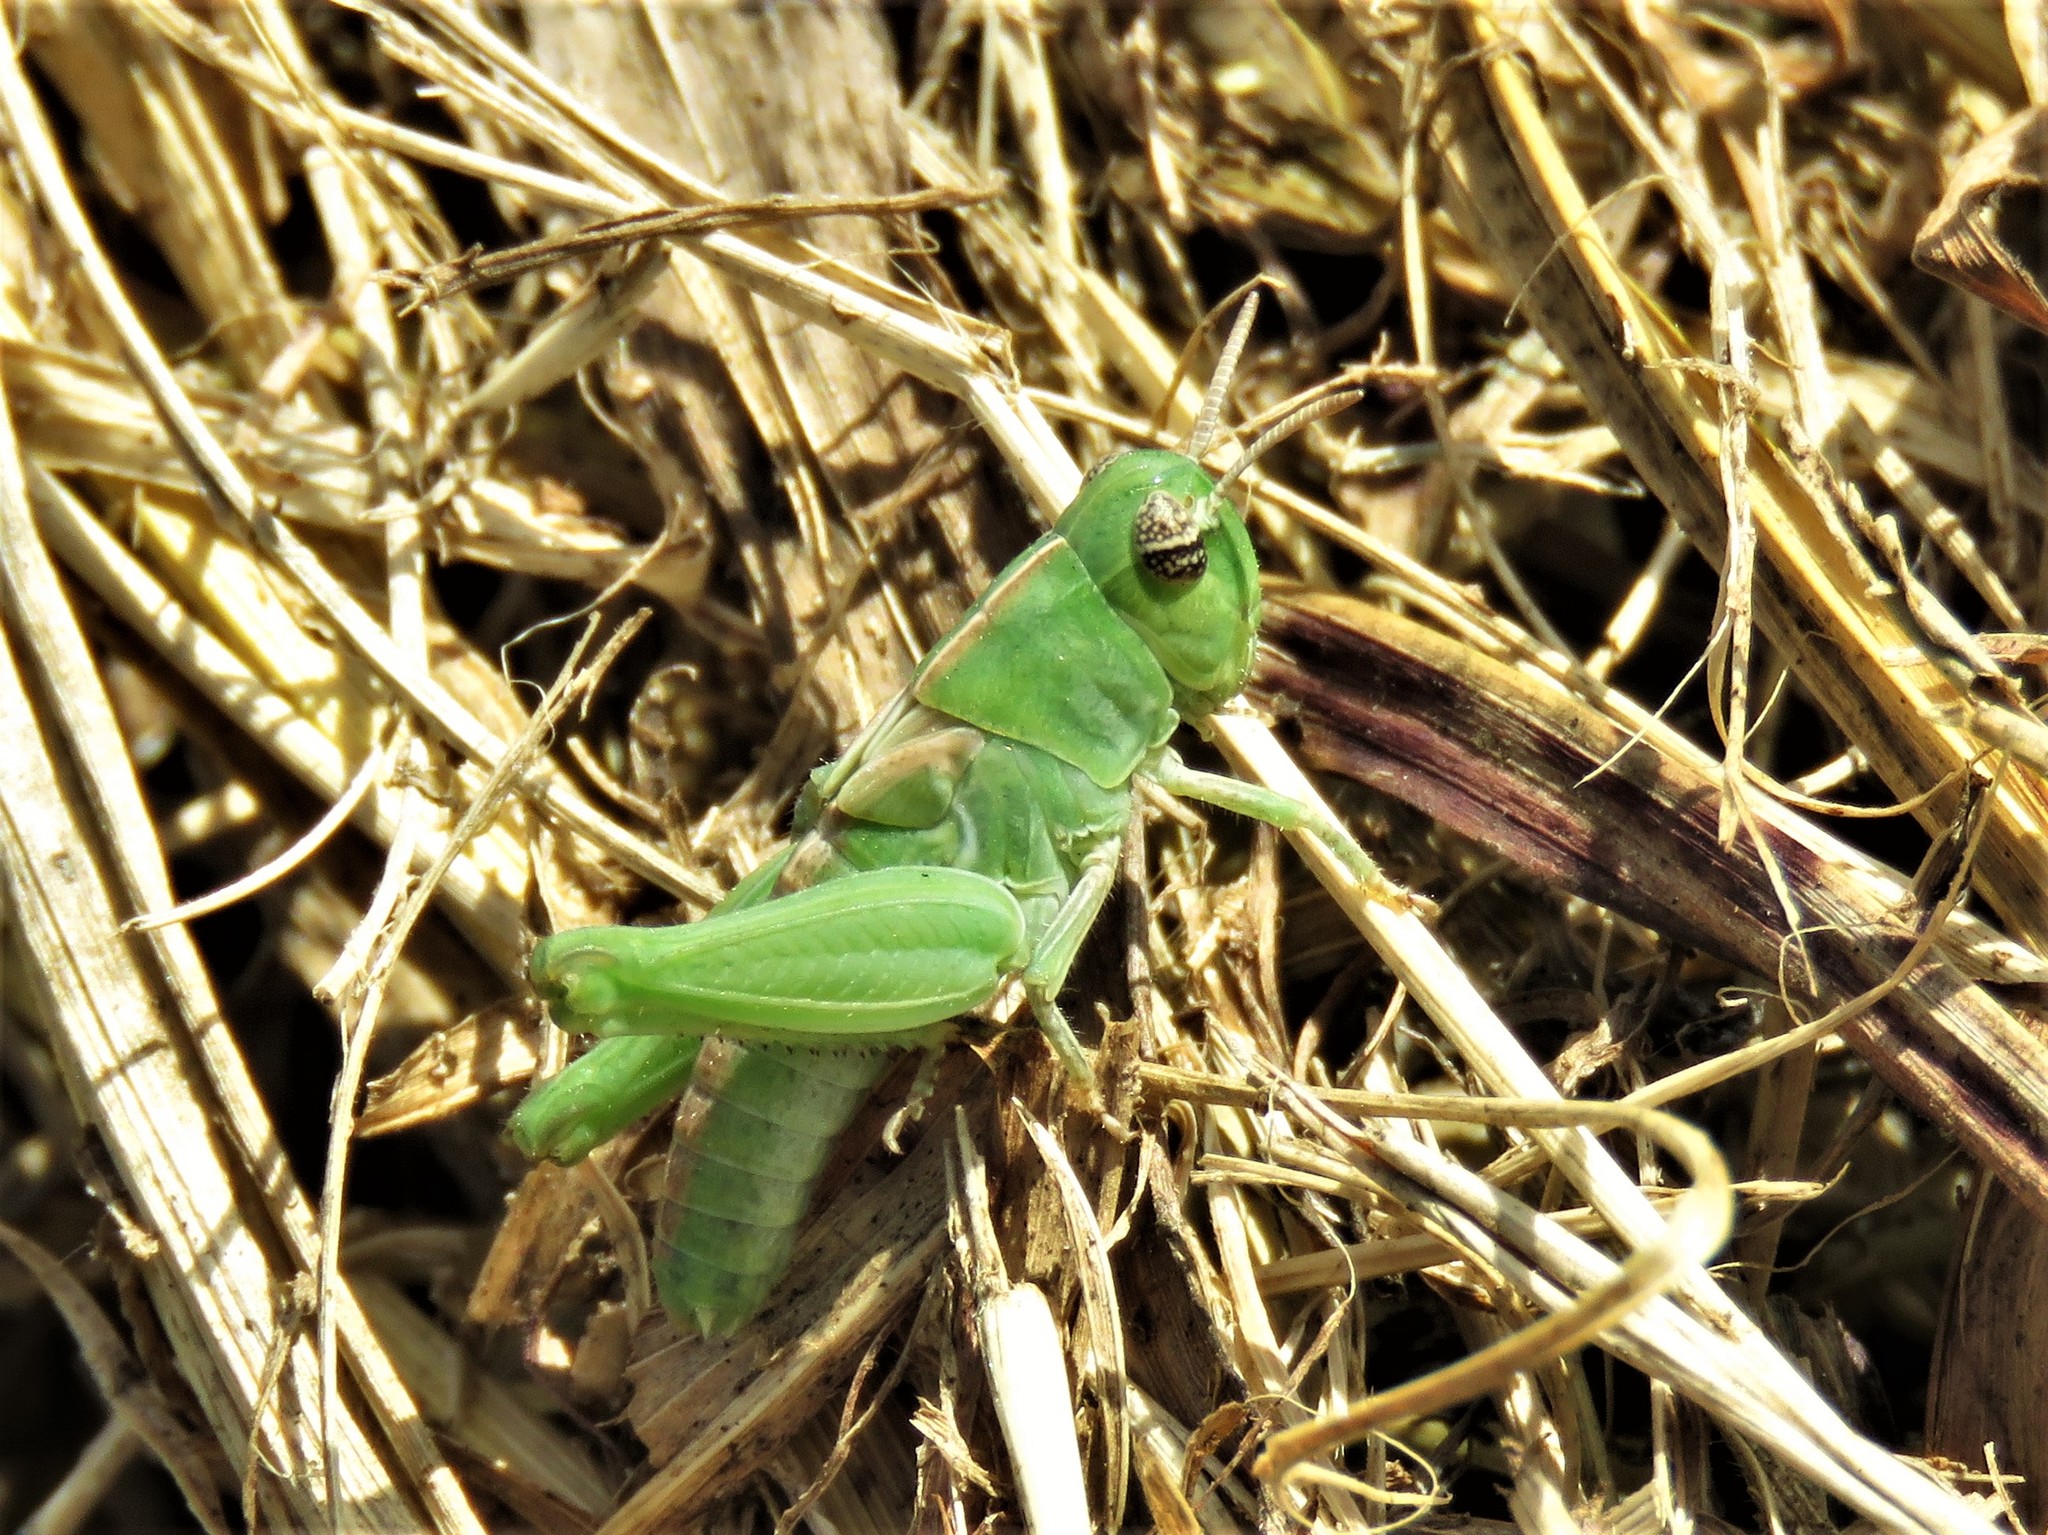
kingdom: Animalia
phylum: Arthropoda
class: Insecta
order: Orthoptera
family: Acrididae
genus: Chortophaga
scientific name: Chortophaga viridifasciata
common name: Green-striped grasshopper
